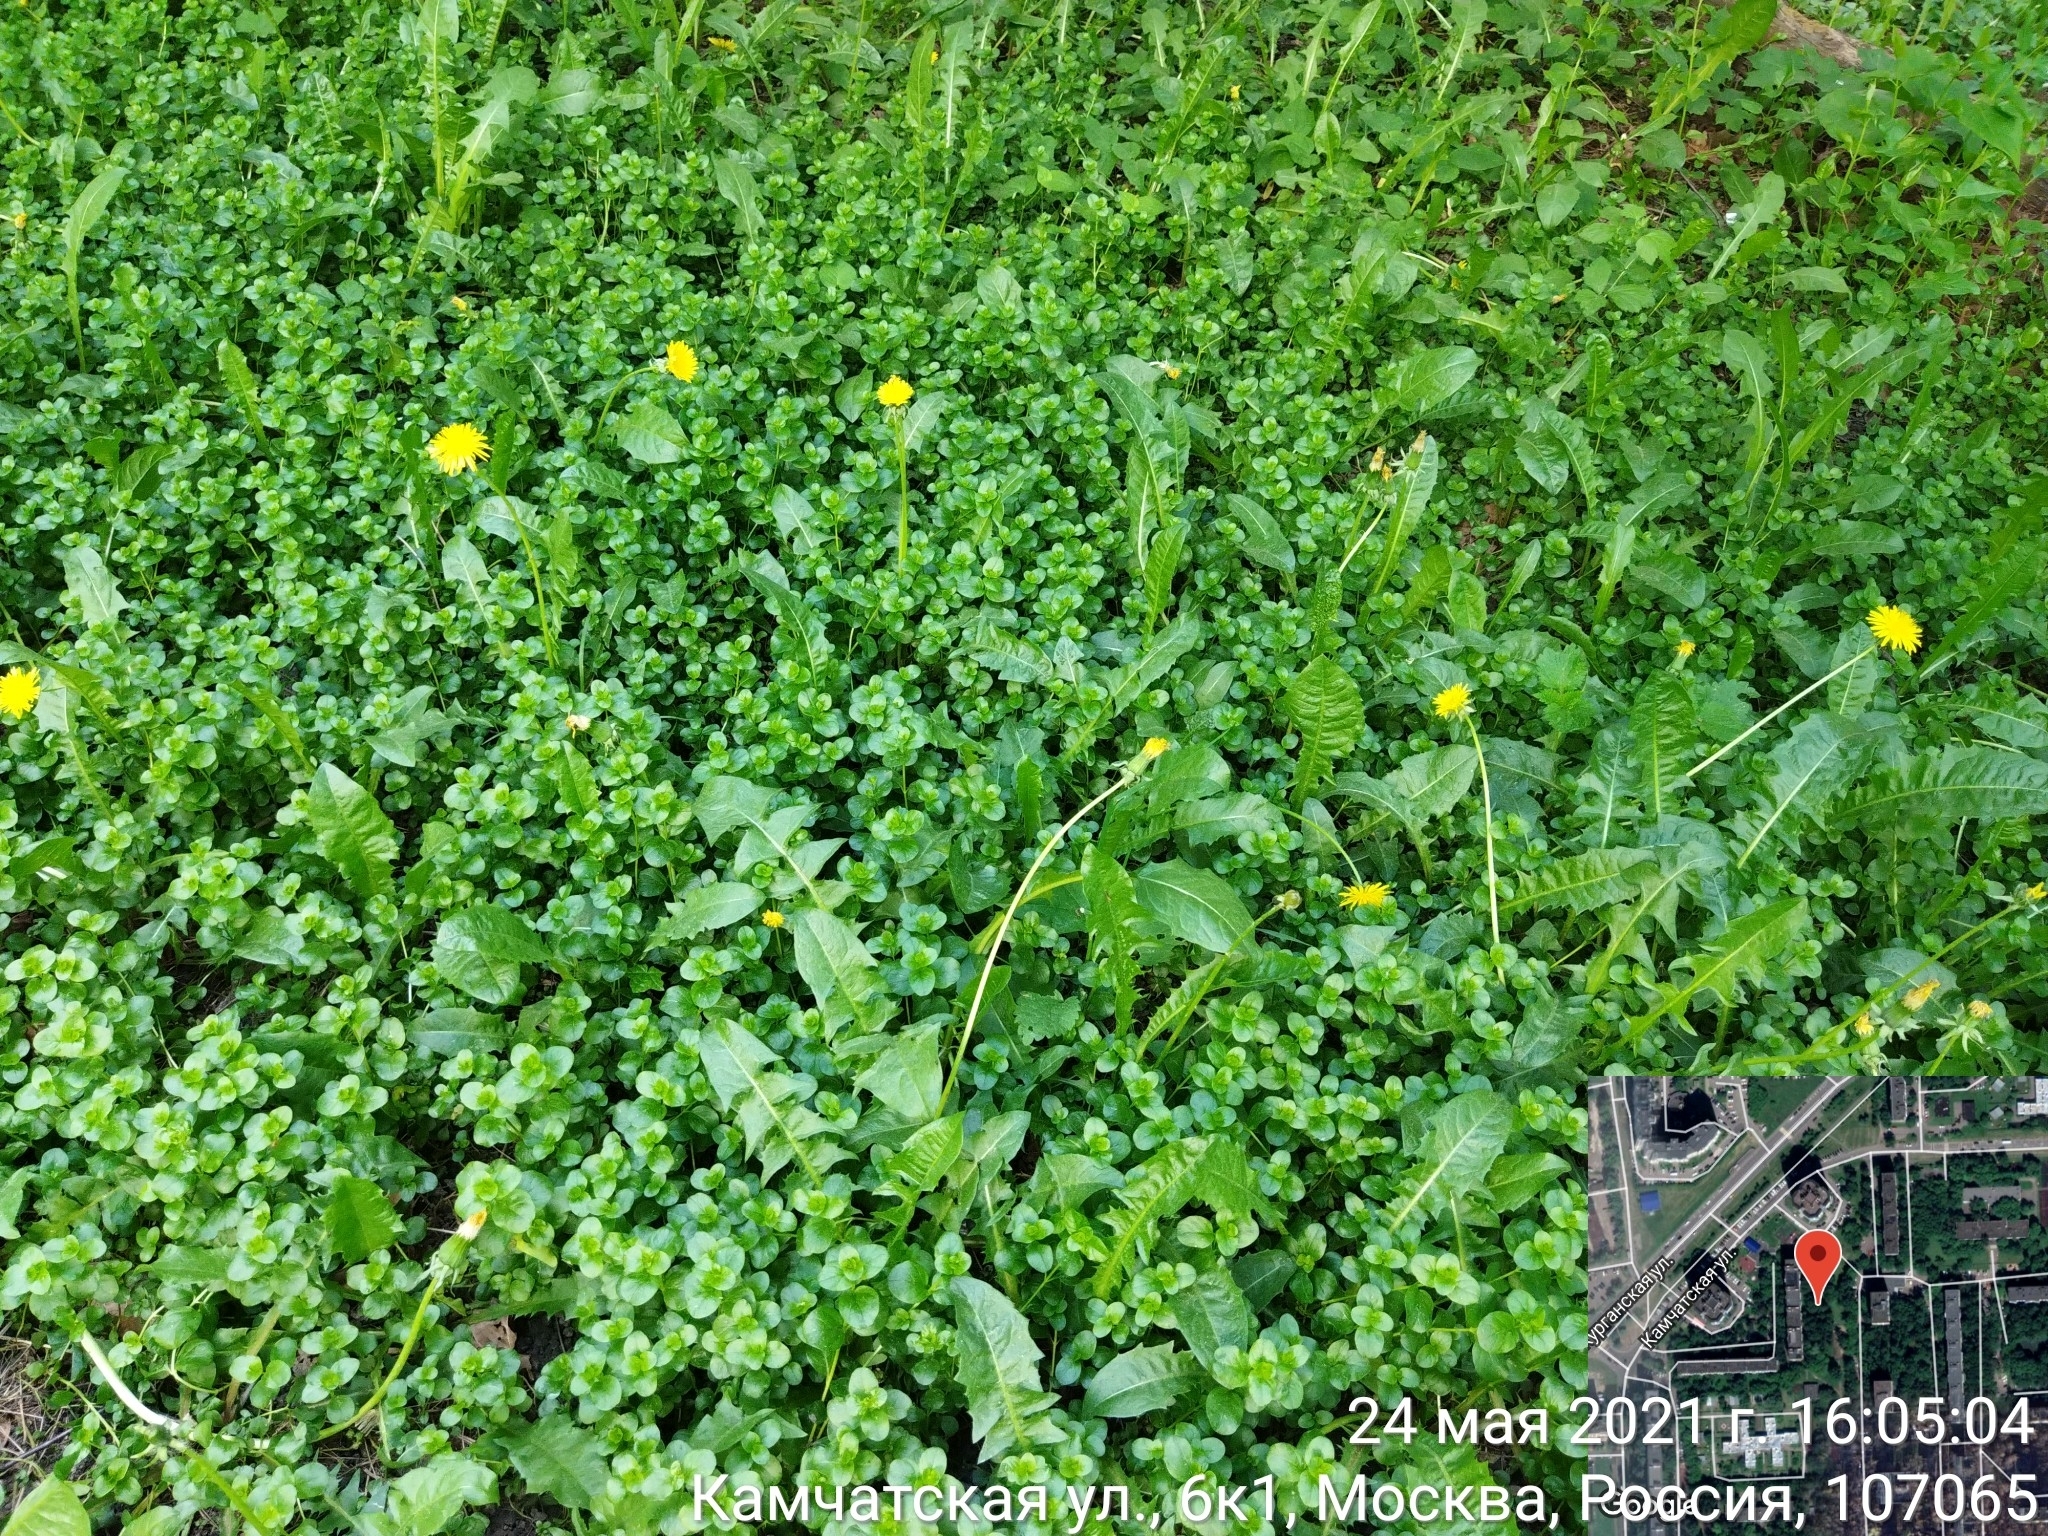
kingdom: Plantae
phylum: Tracheophyta
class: Magnoliopsida
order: Ericales
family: Primulaceae
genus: Lysimachia
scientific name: Lysimachia nummularia
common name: Moneywort
